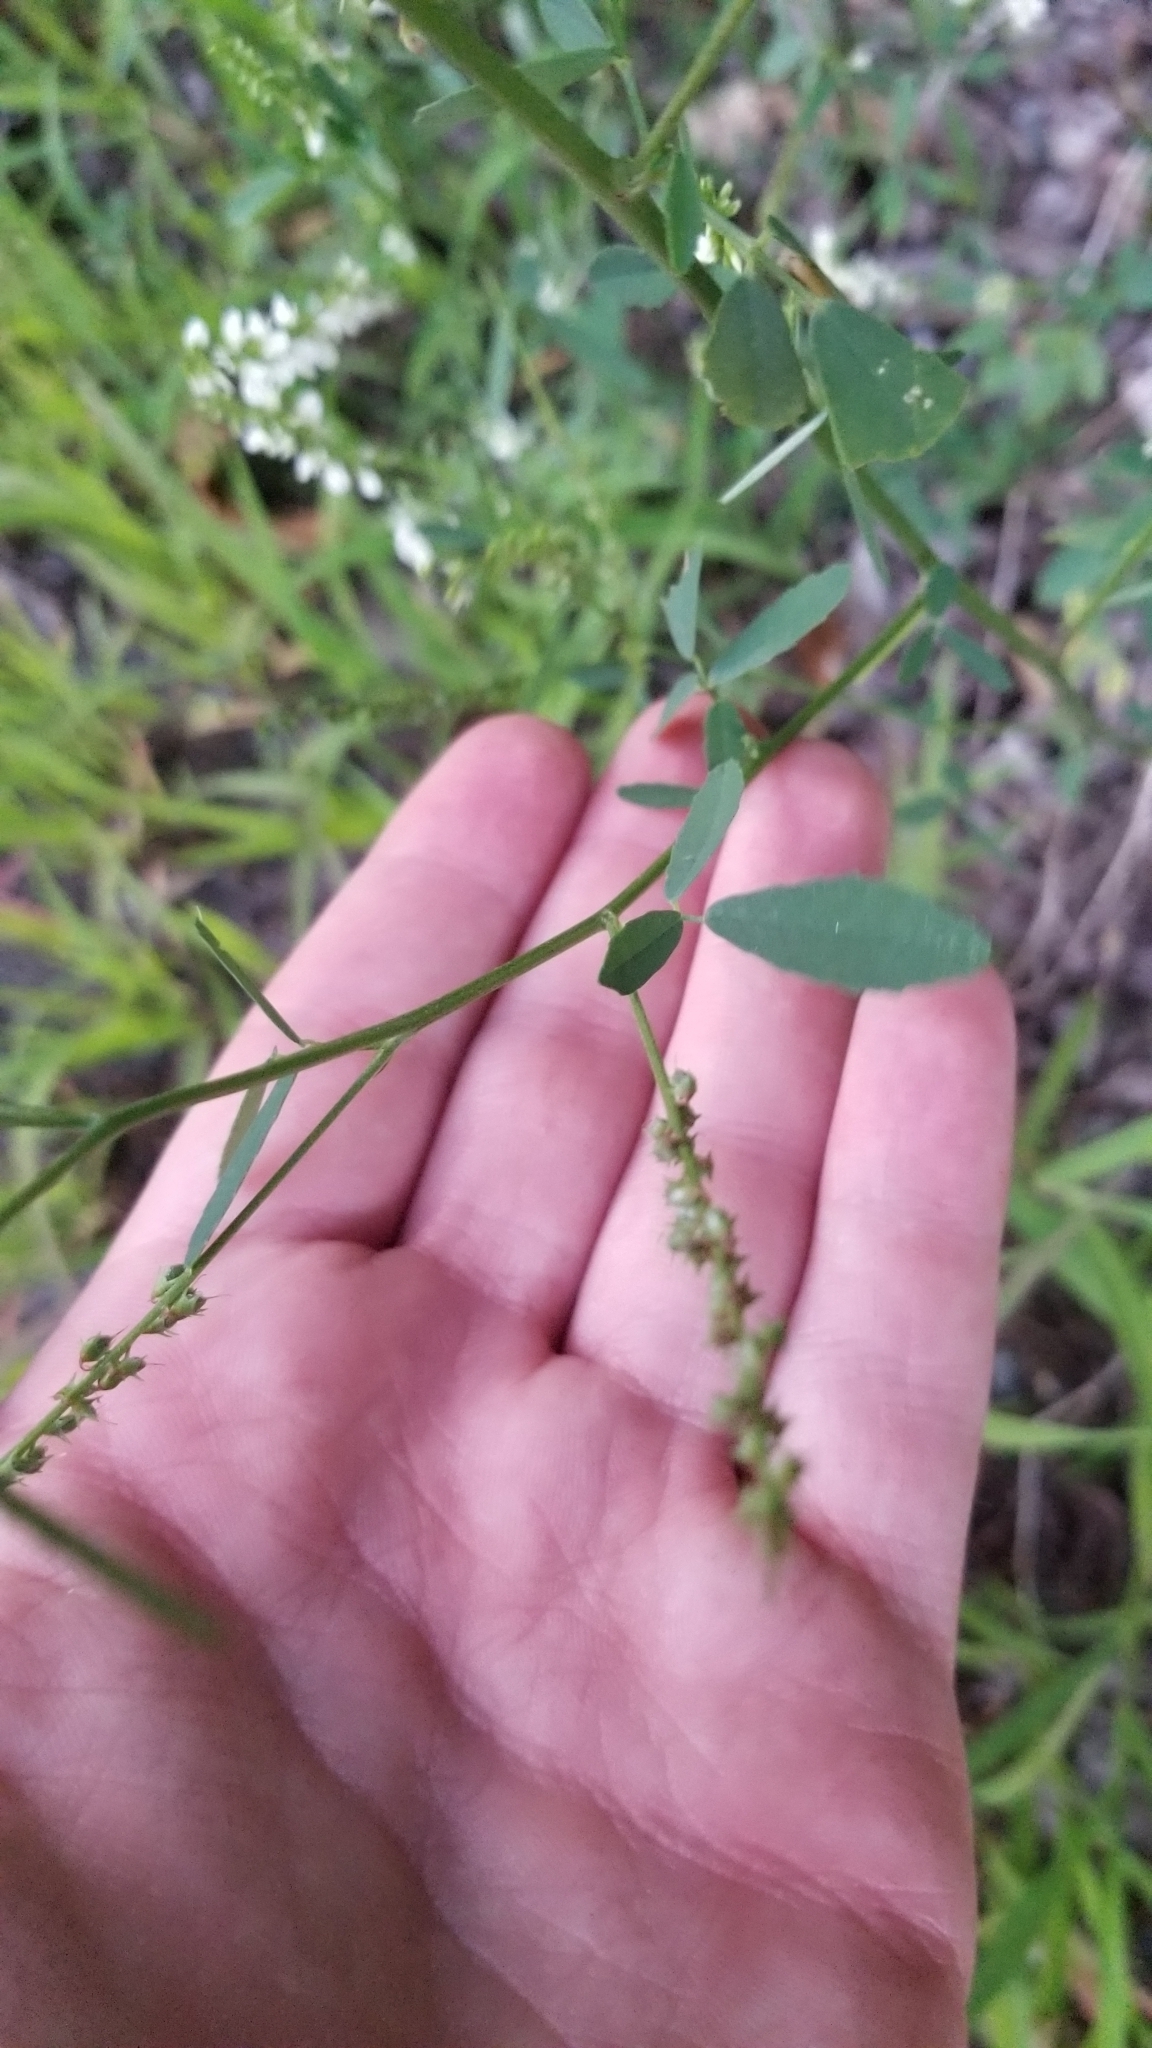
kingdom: Plantae
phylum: Tracheophyta
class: Magnoliopsida
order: Fabales
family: Fabaceae
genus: Melilotus
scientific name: Melilotus albus
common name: White melilot
